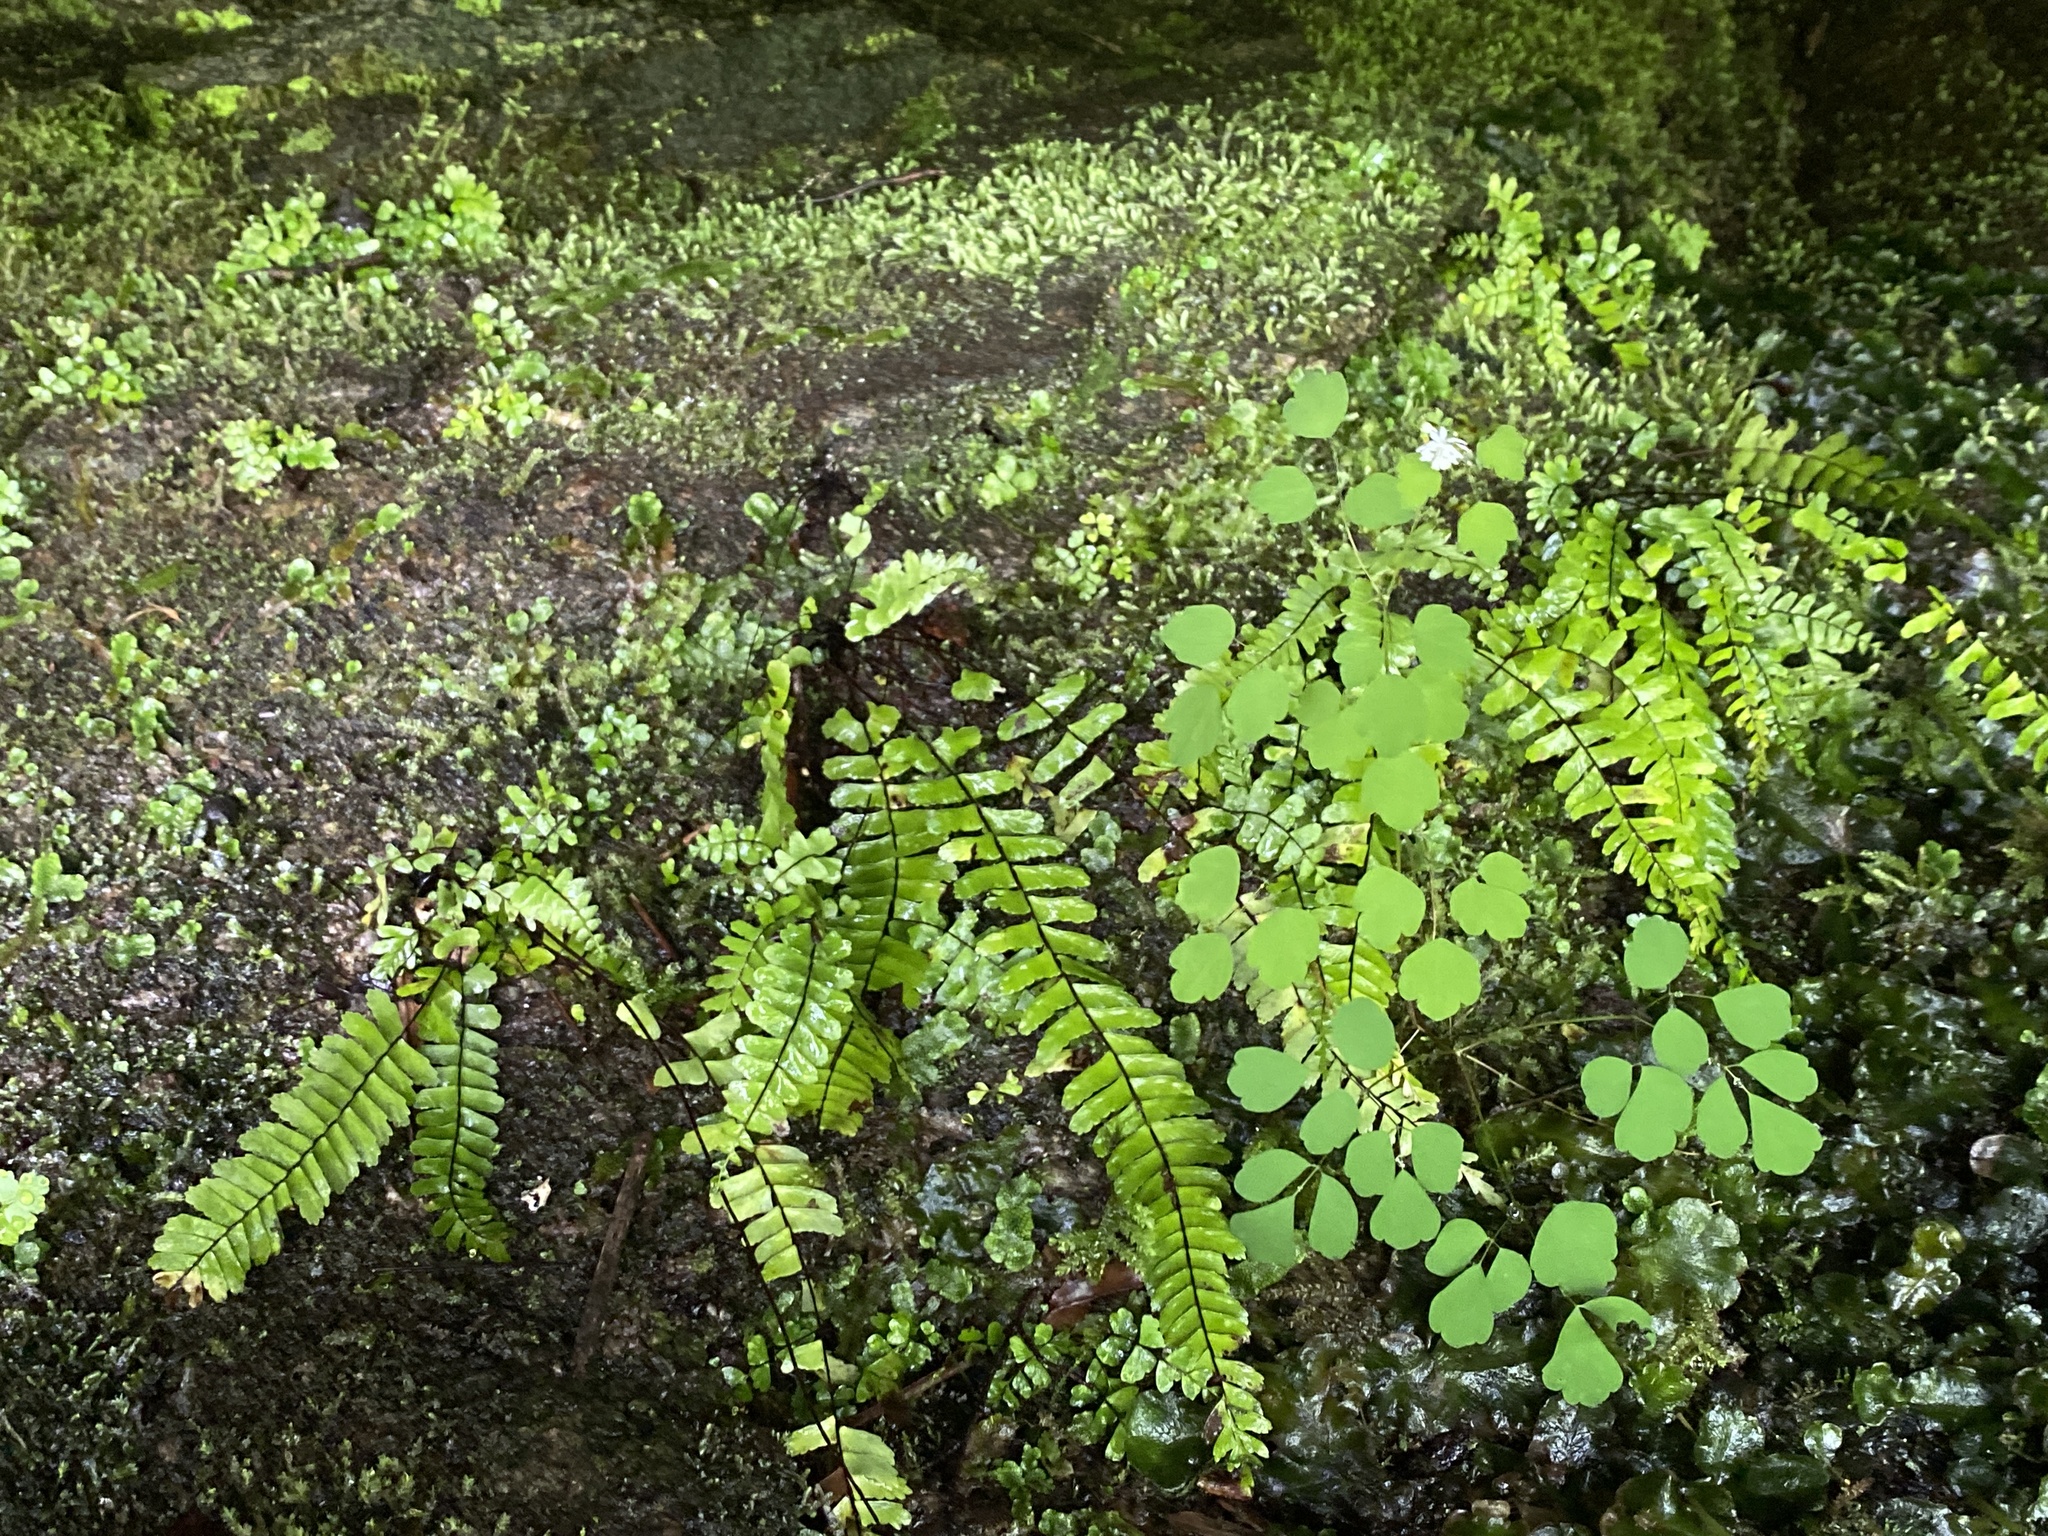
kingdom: Plantae
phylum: Tracheophyta
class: Polypodiopsida
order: Polypodiales
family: Aspleniaceae
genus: Asplenium
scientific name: Asplenium monanthes
